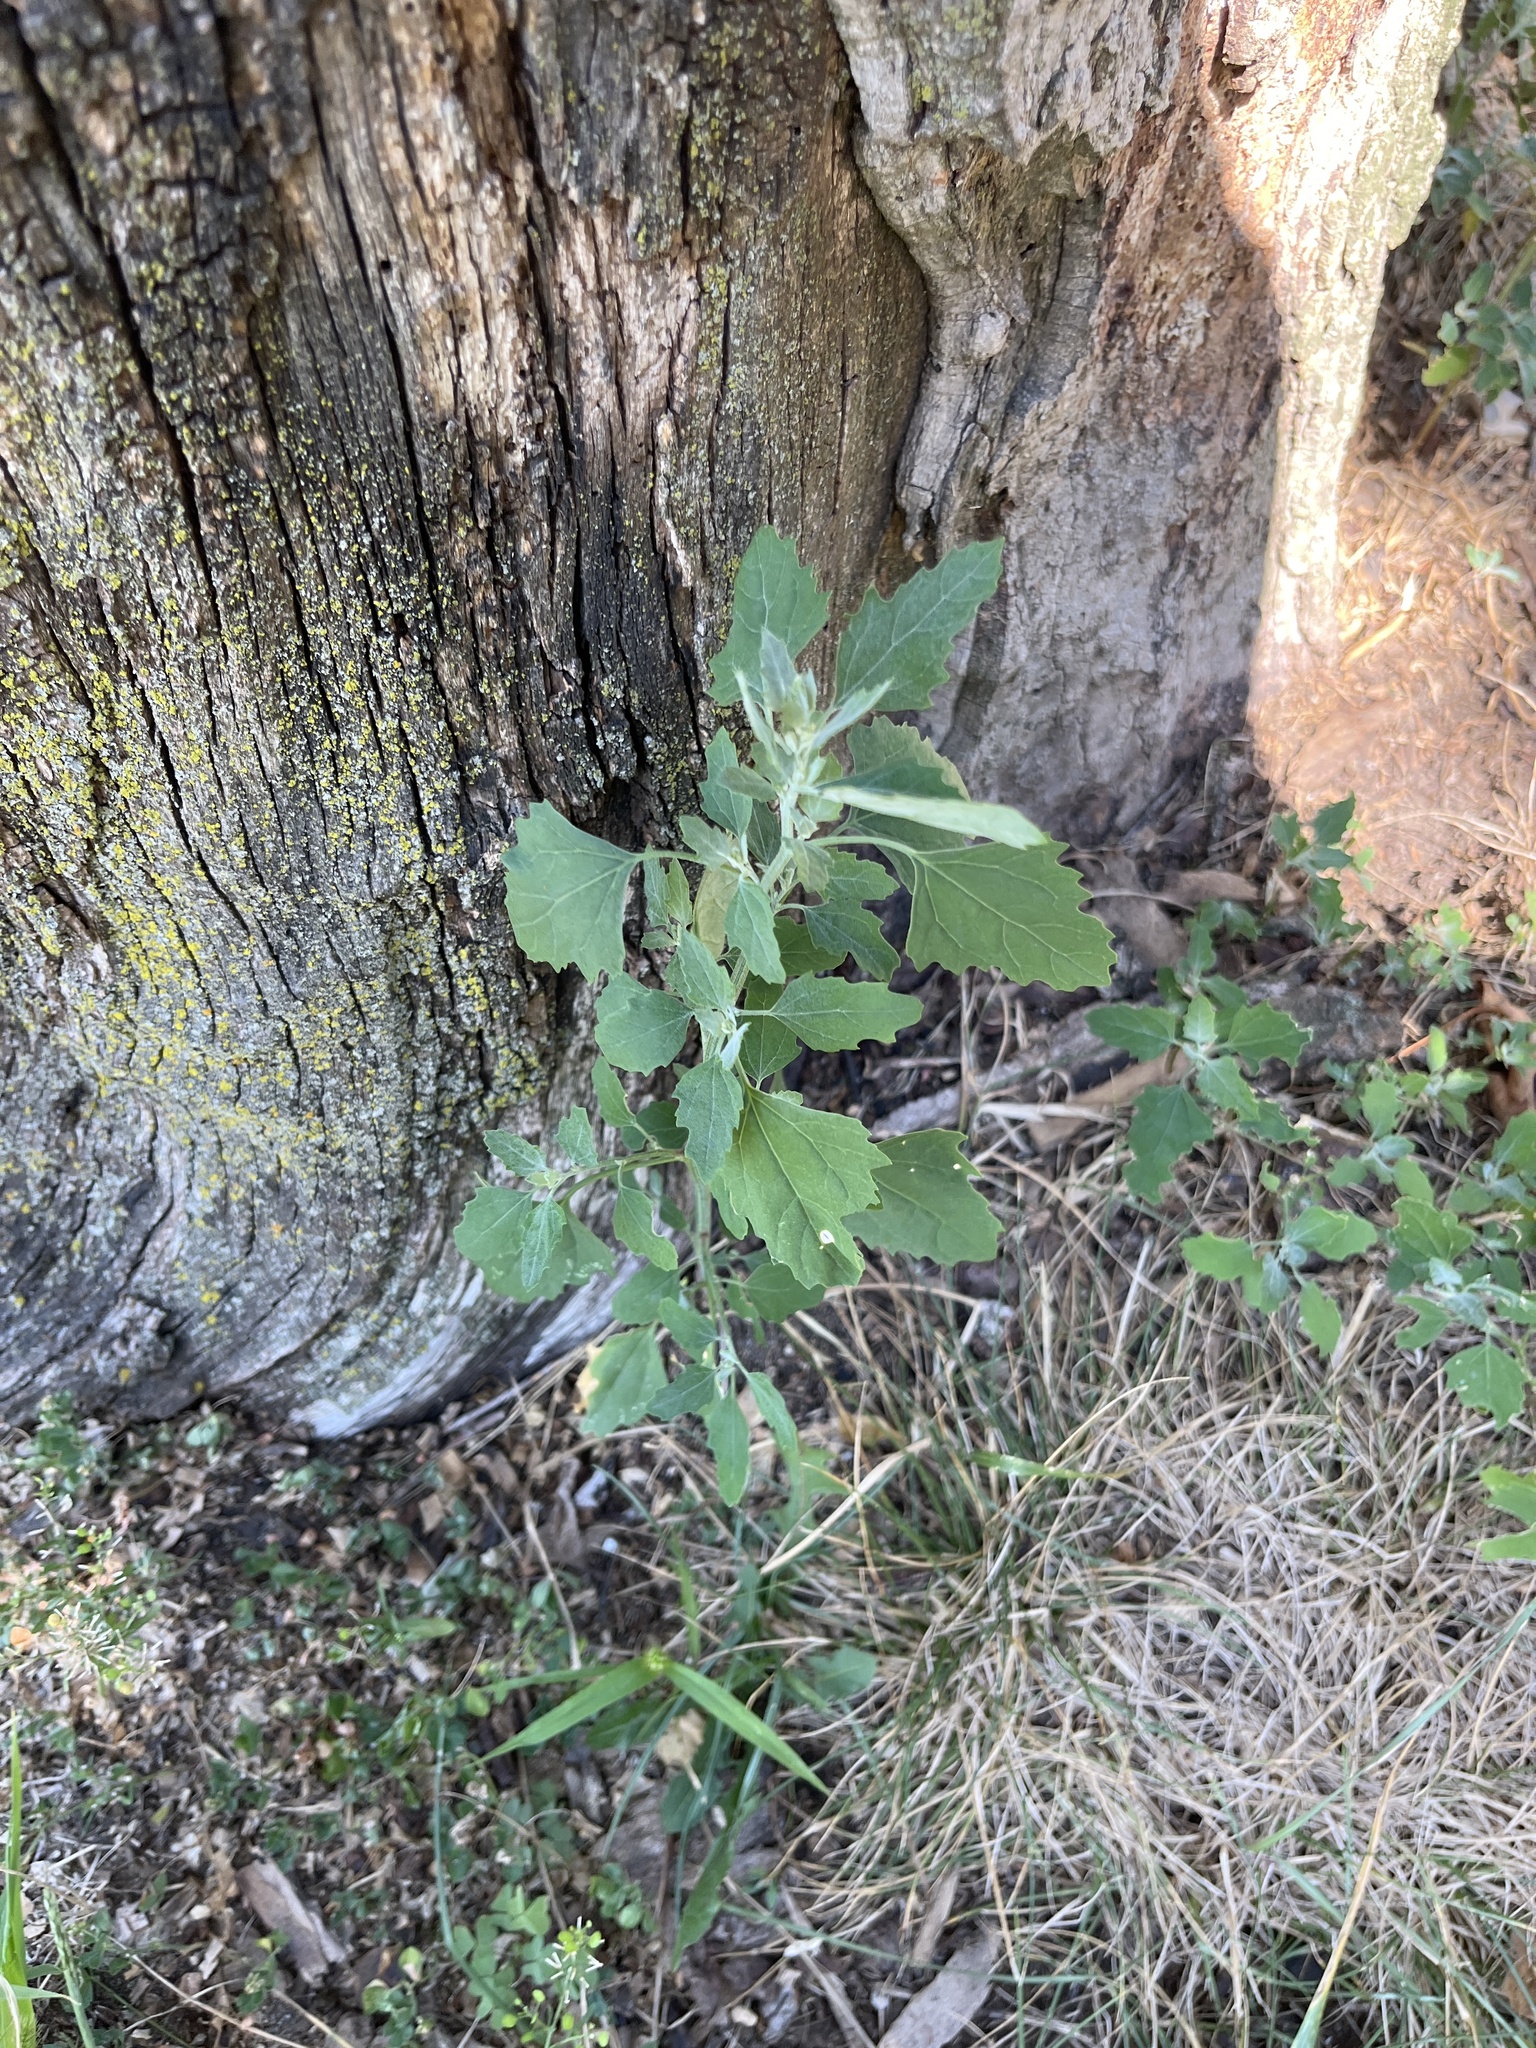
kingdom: Plantae
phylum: Tracheophyta
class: Magnoliopsida
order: Caryophyllales
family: Amaranthaceae
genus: Chenopodium
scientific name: Chenopodium album
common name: Fat-hen
